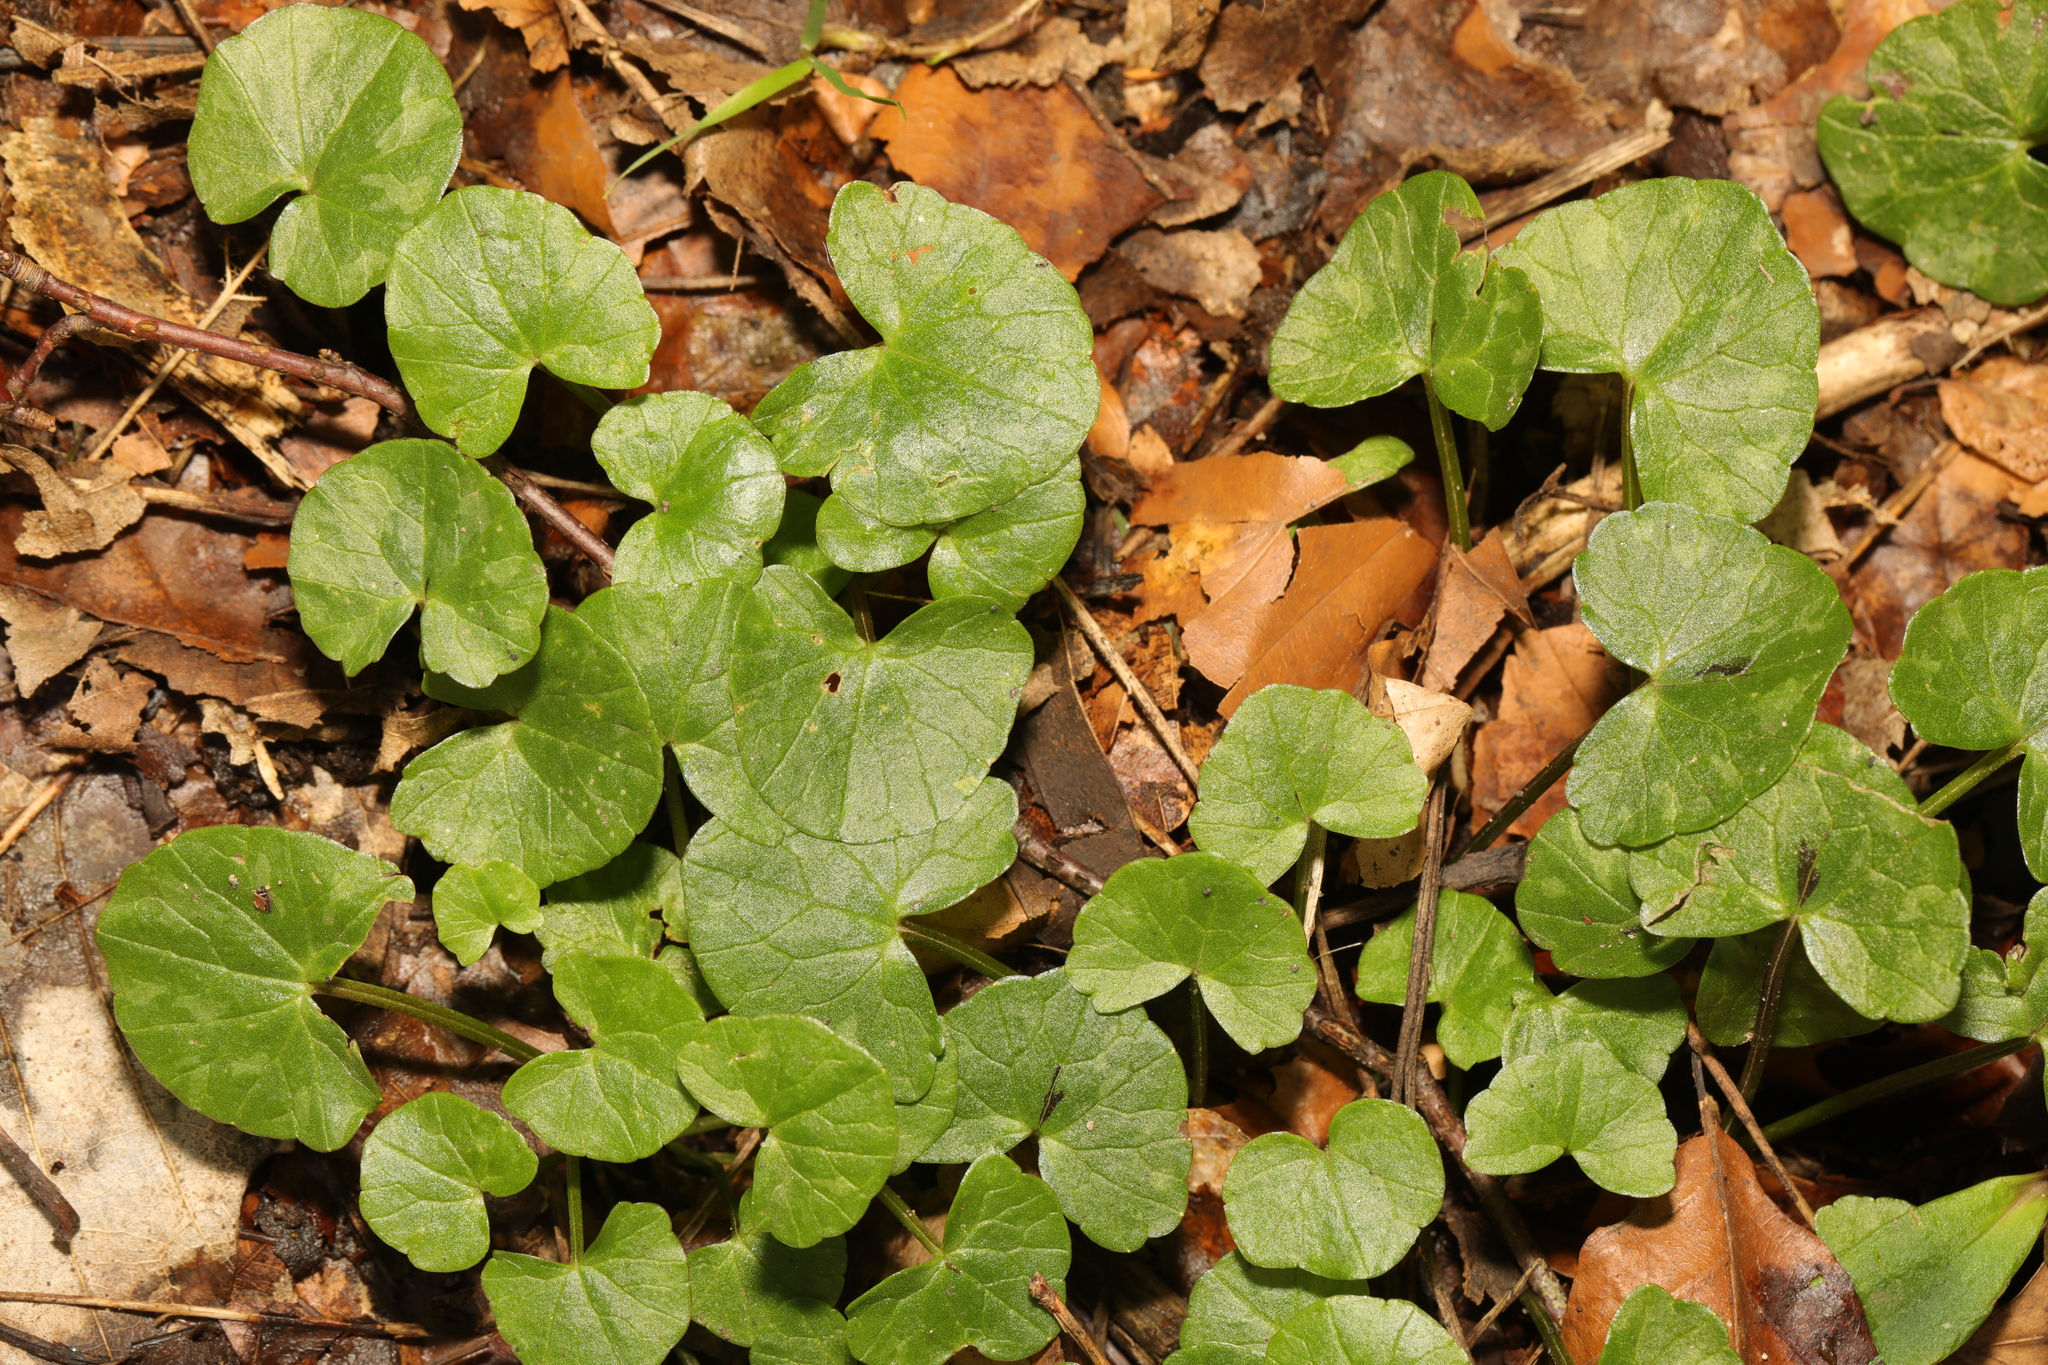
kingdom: Plantae
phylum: Tracheophyta
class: Magnoliopsida
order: Ranunculales
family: Ranunculaceae
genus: Ficaria
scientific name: Ficaria verna
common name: Lesser celandine
